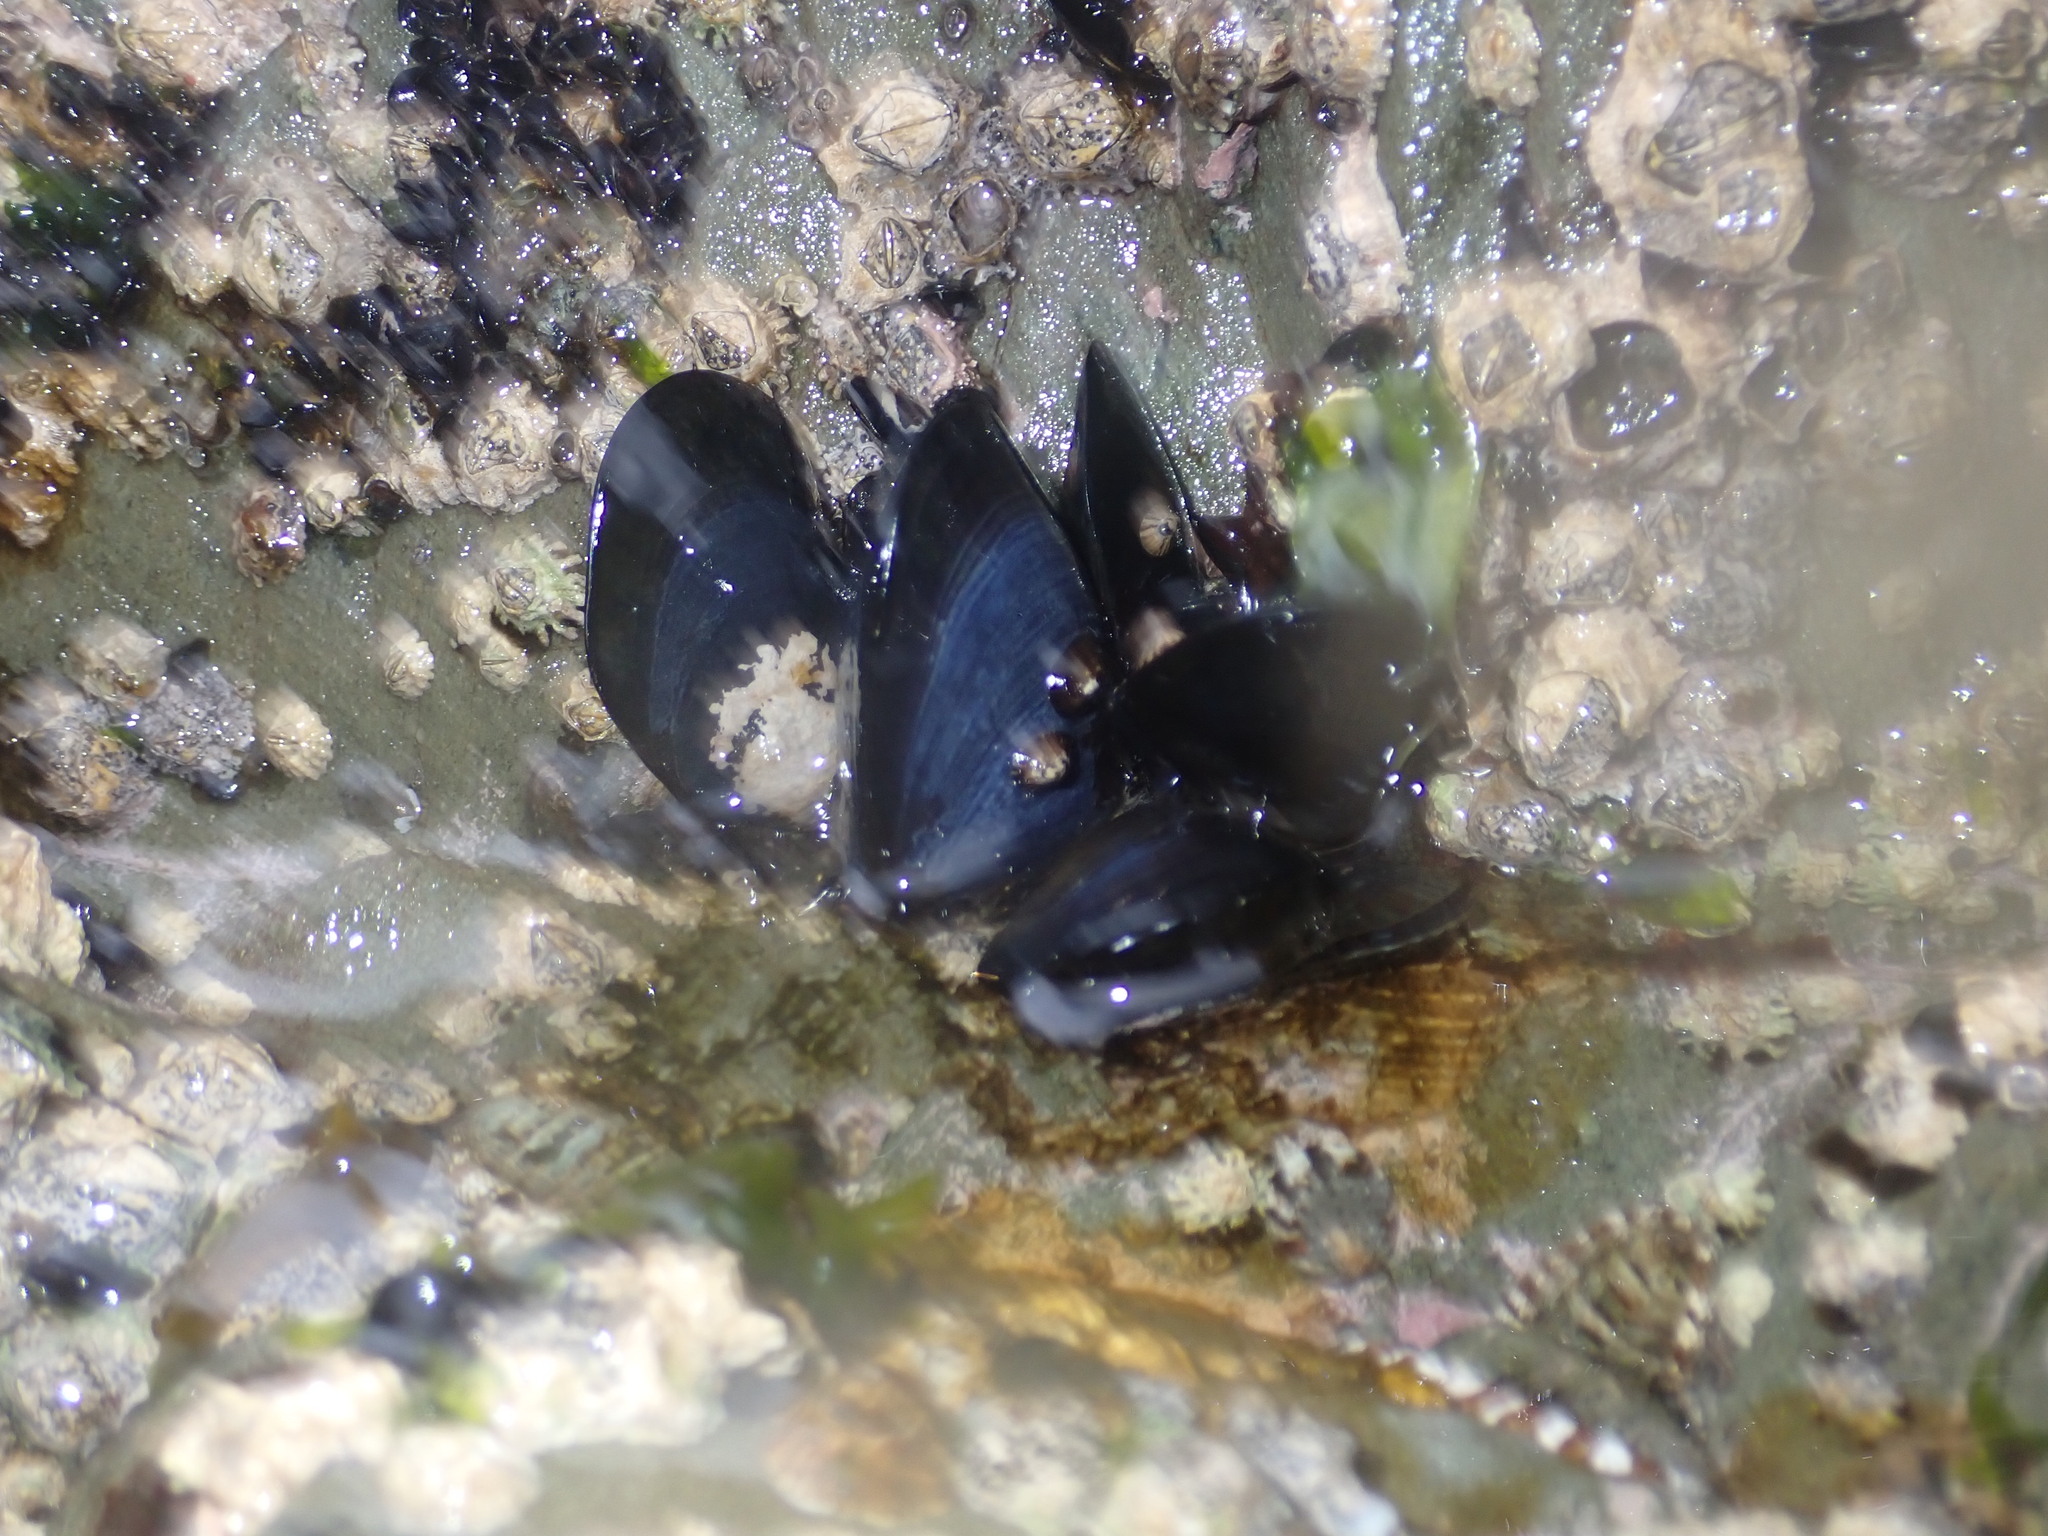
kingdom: Animalia
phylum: Mollusca
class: Bivalvia
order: Mytilida
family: Mytilidae
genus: Mytilus
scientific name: Mytilus planulatus
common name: Australian mussel
